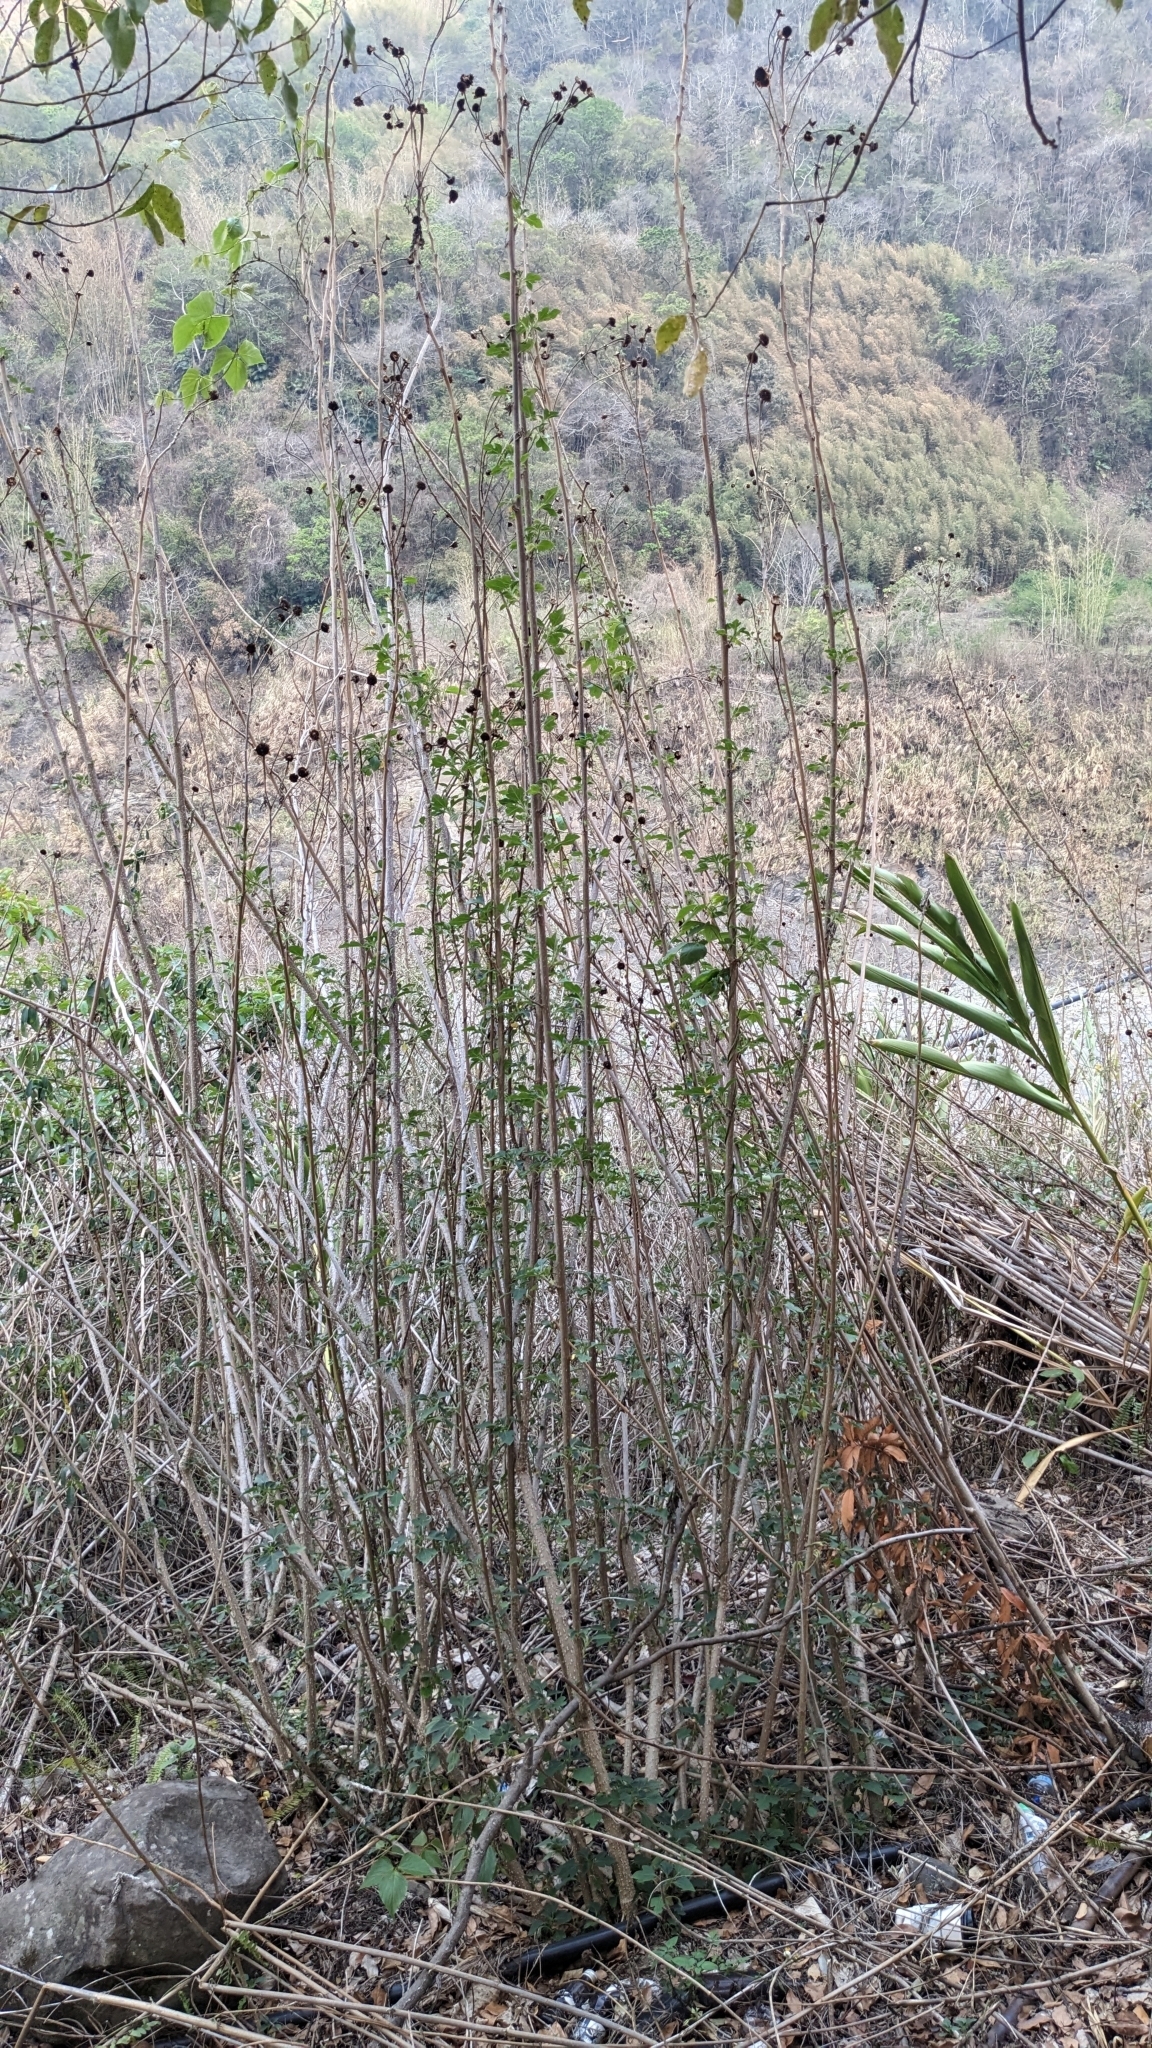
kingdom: Plantae
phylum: Tracheophyta
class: Magnoliopsida
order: Asterales
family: Asteraceae
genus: Tithonia
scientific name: Tithonia diversifolia
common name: Tree marigold
